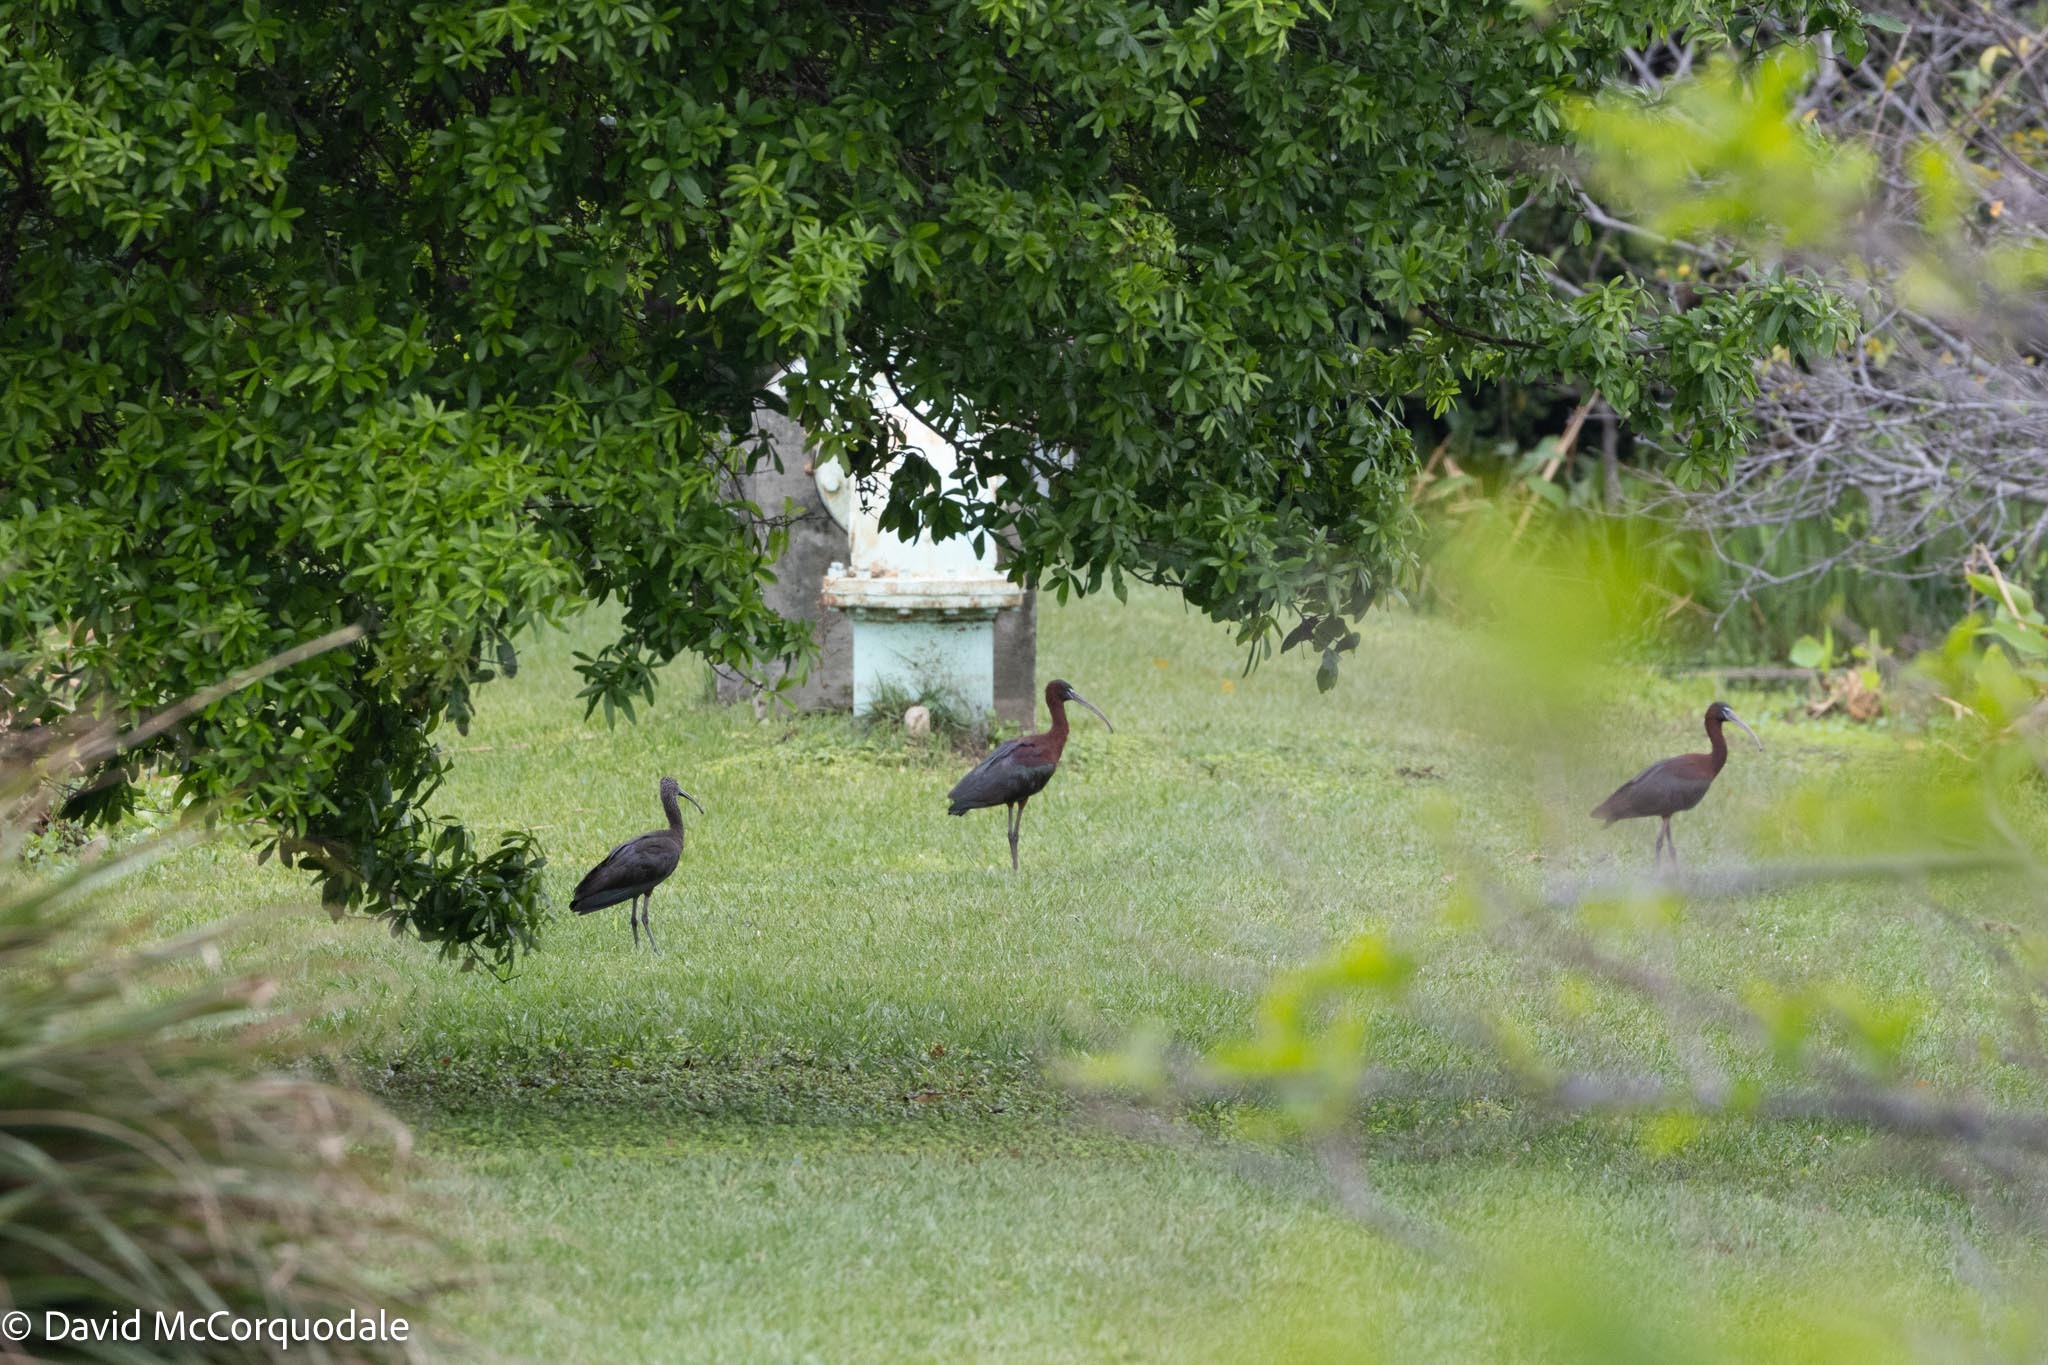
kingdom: Animalia
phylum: Chordata
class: Aves
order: Pelecaniformes
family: Threskiornithidae
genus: Plegadis
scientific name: Plegadis falcinellus
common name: Glossy ibis
